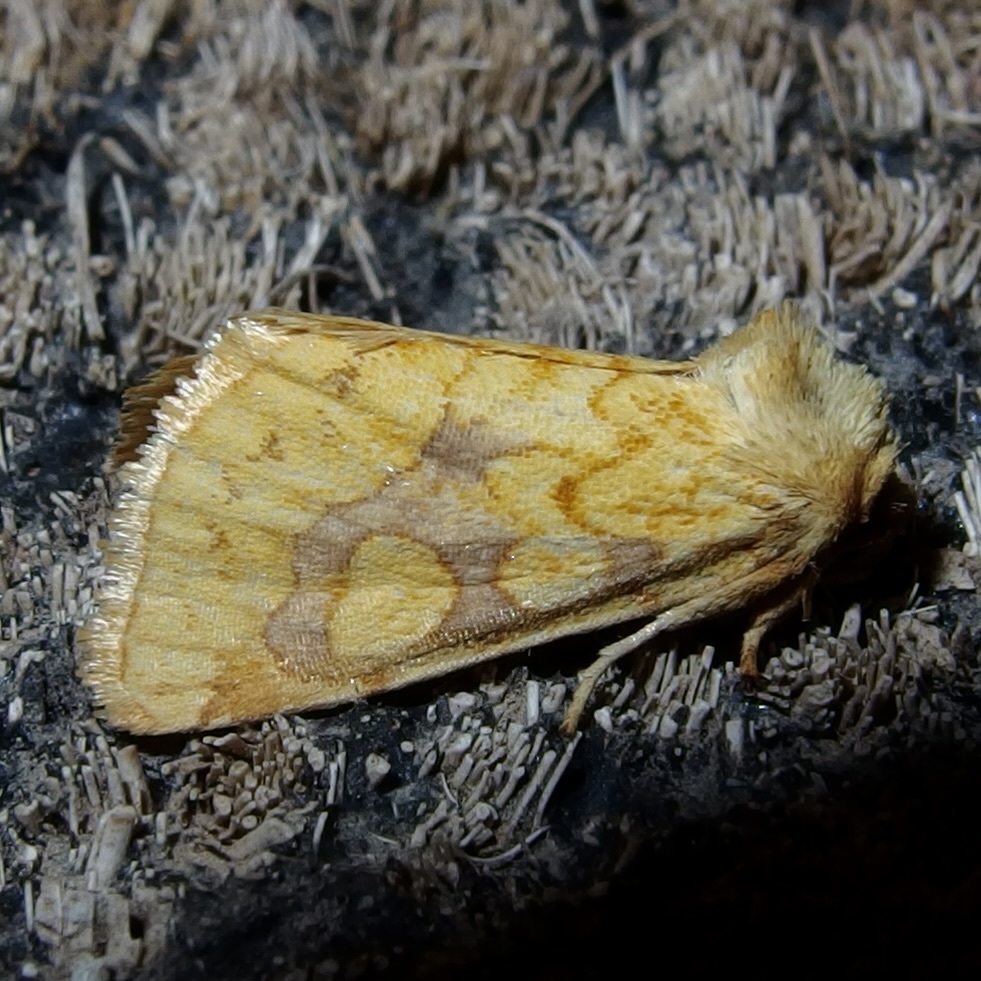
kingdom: Animalia
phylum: Arthropoda
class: Insecta
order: Lepidoptera
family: Noctuidae
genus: Nocloa
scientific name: Nocloa cordova
